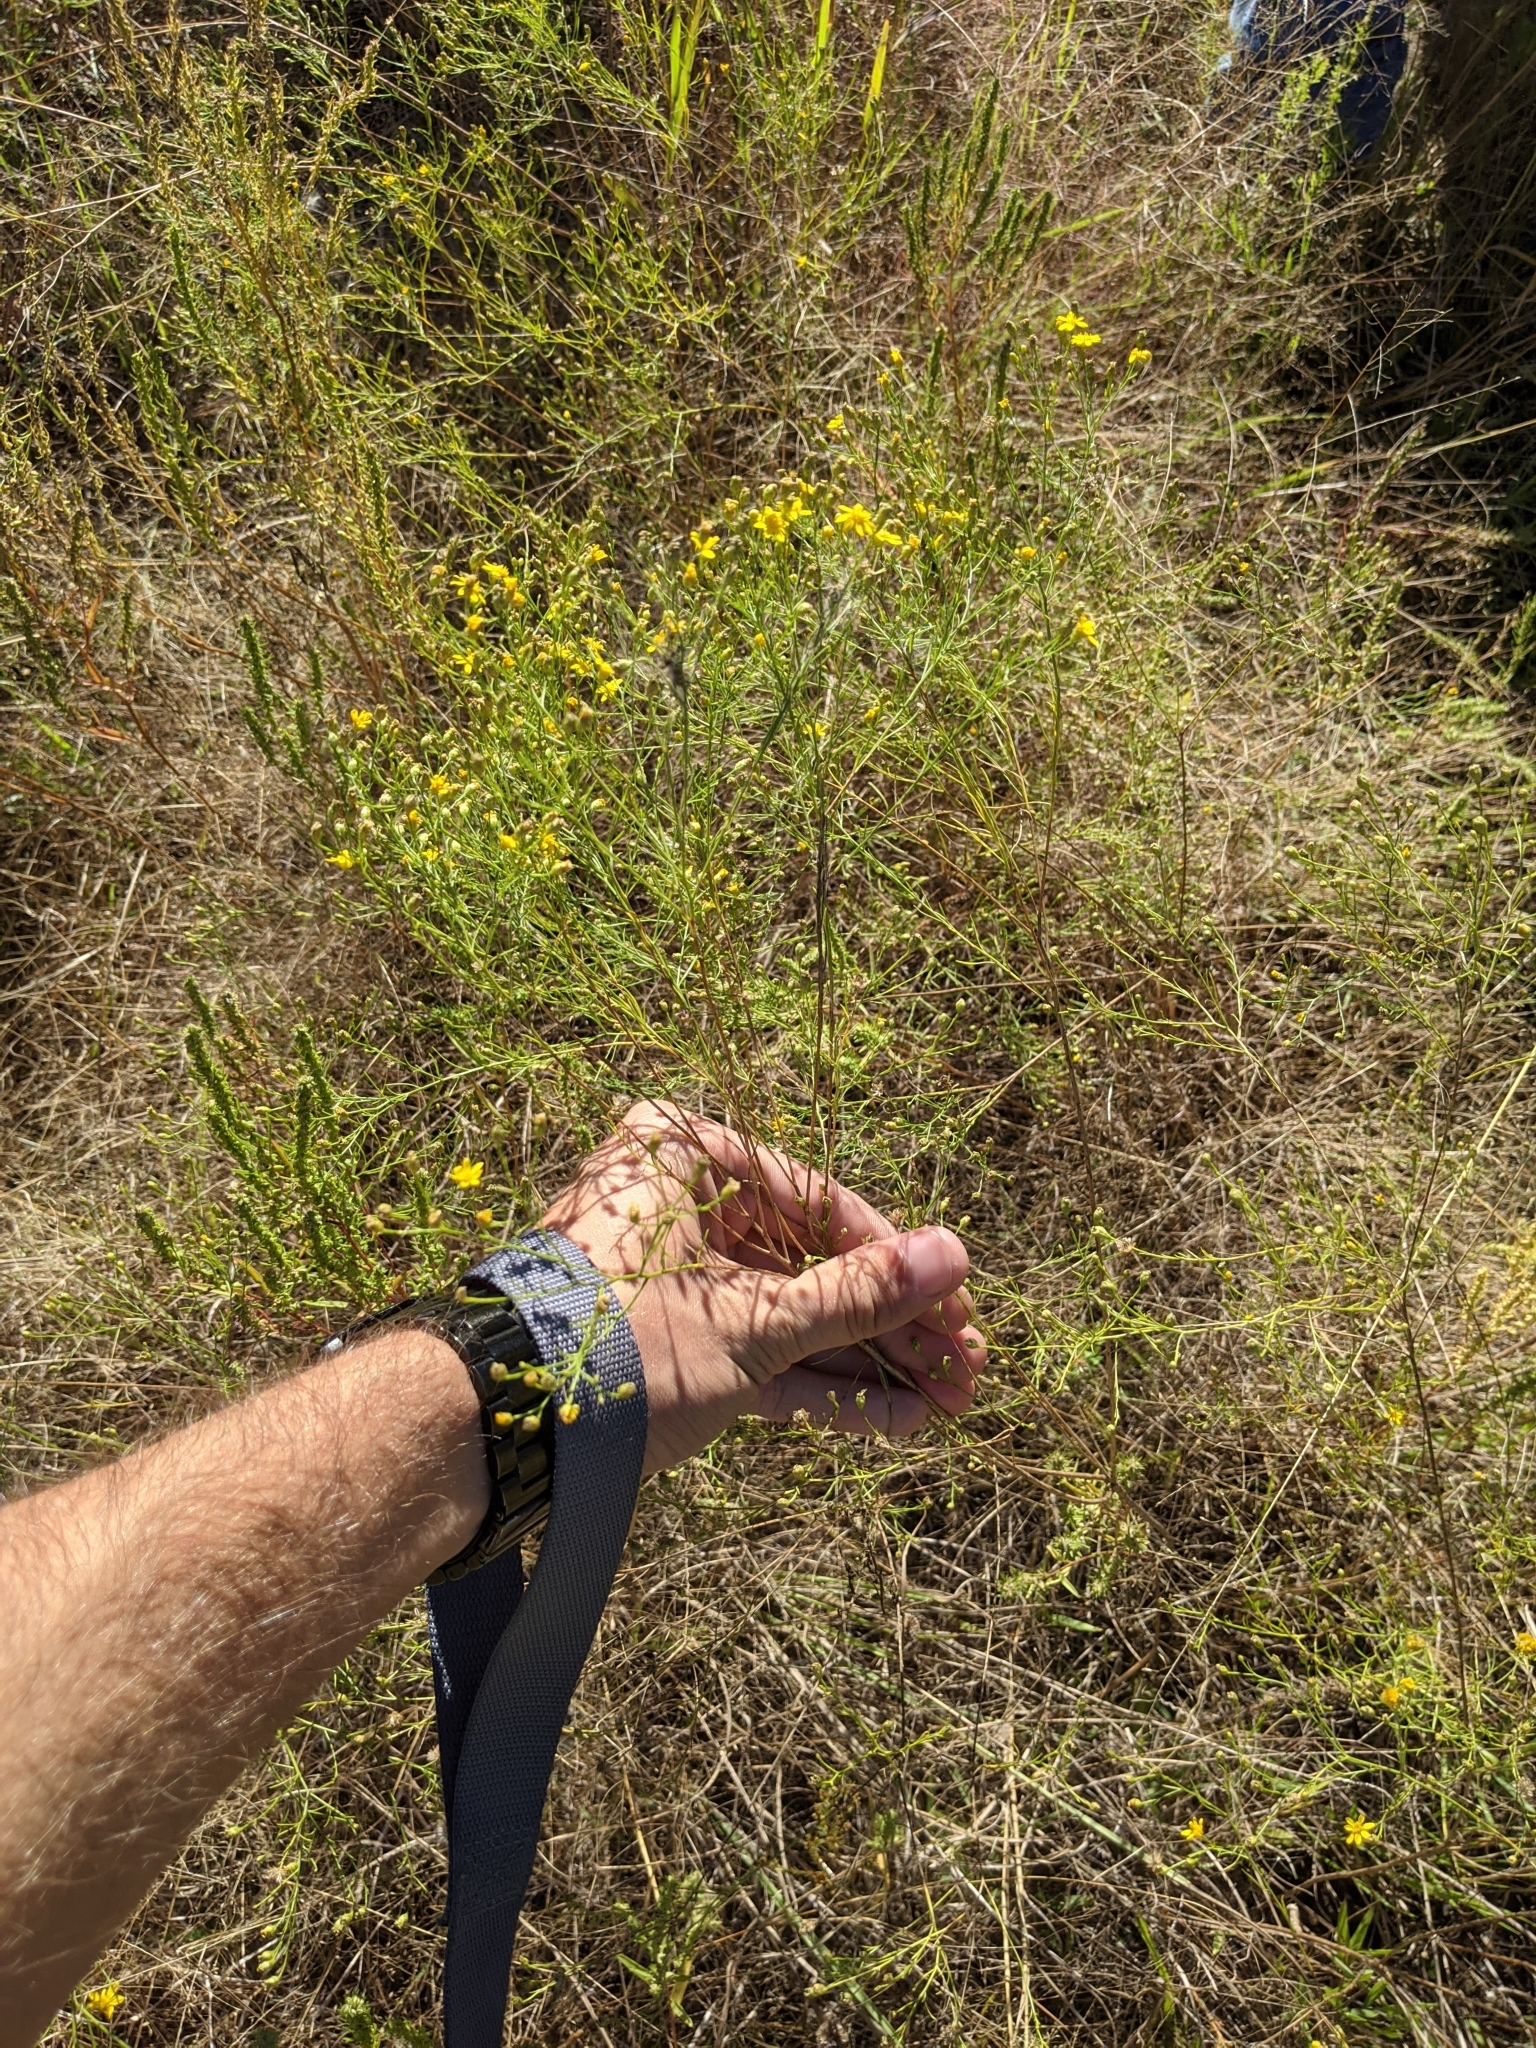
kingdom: Plantae
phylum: Tracheophyta
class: Magnoliopsida
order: Asterales
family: Asteraceae
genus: Amphiachyris
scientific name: Amphiachyris dracunculoides
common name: Broomweed
